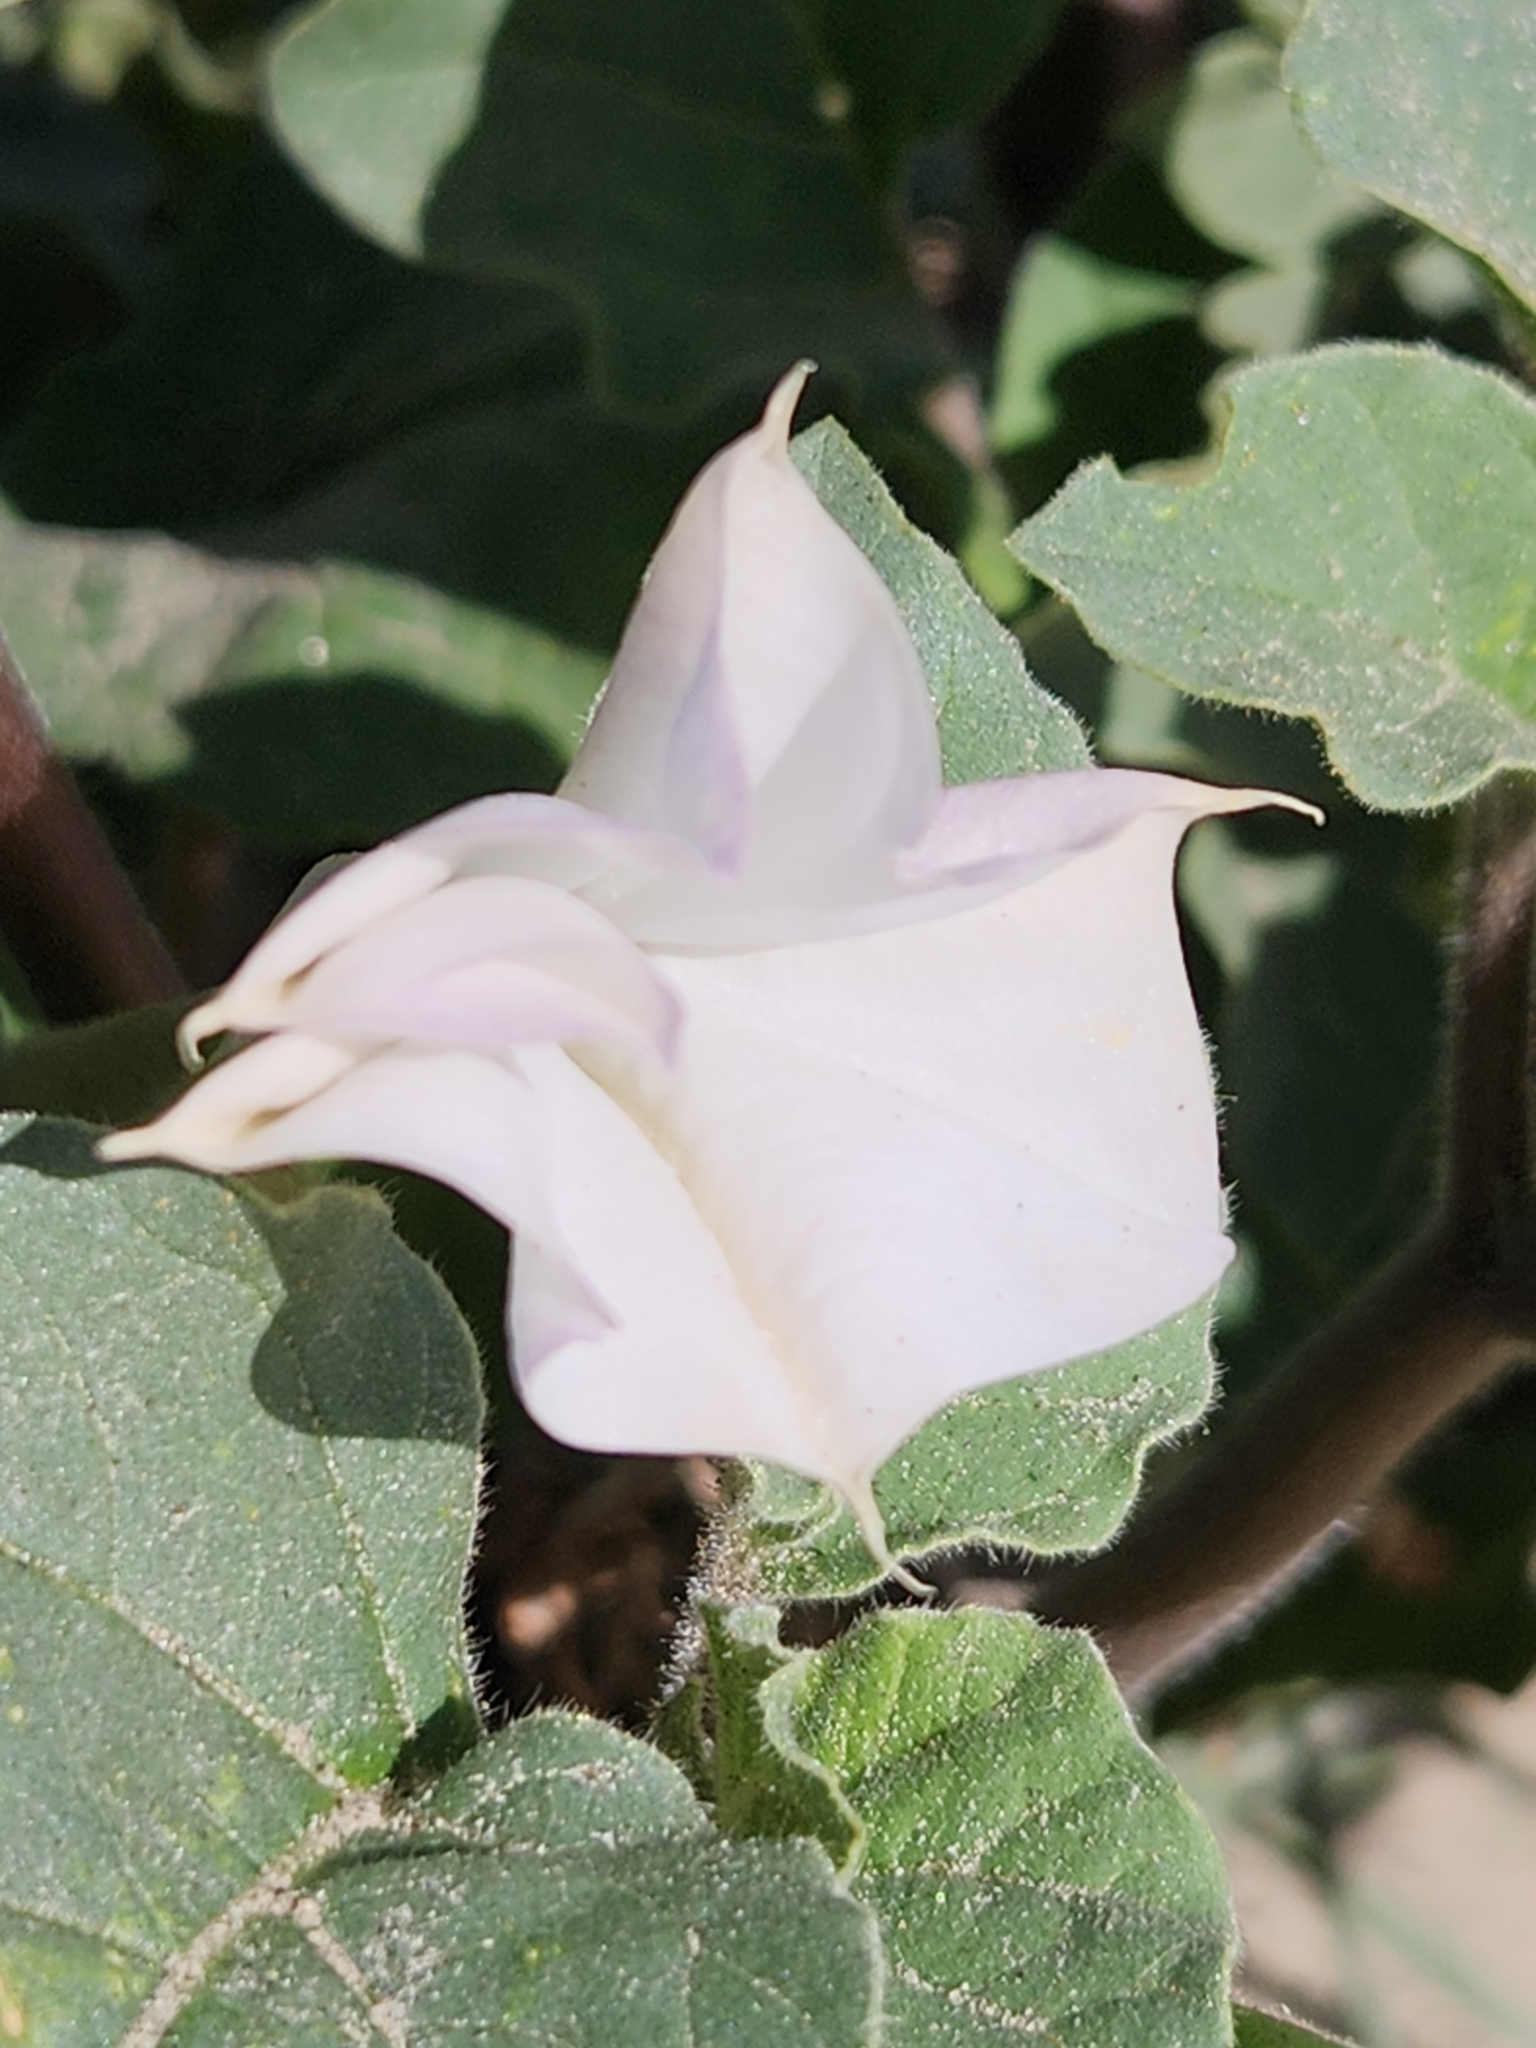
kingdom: Plantae
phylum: Tracheophyta
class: Magnoliopsida
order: Solanales
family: Solanaceae
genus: Datura
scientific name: Datura discolor
